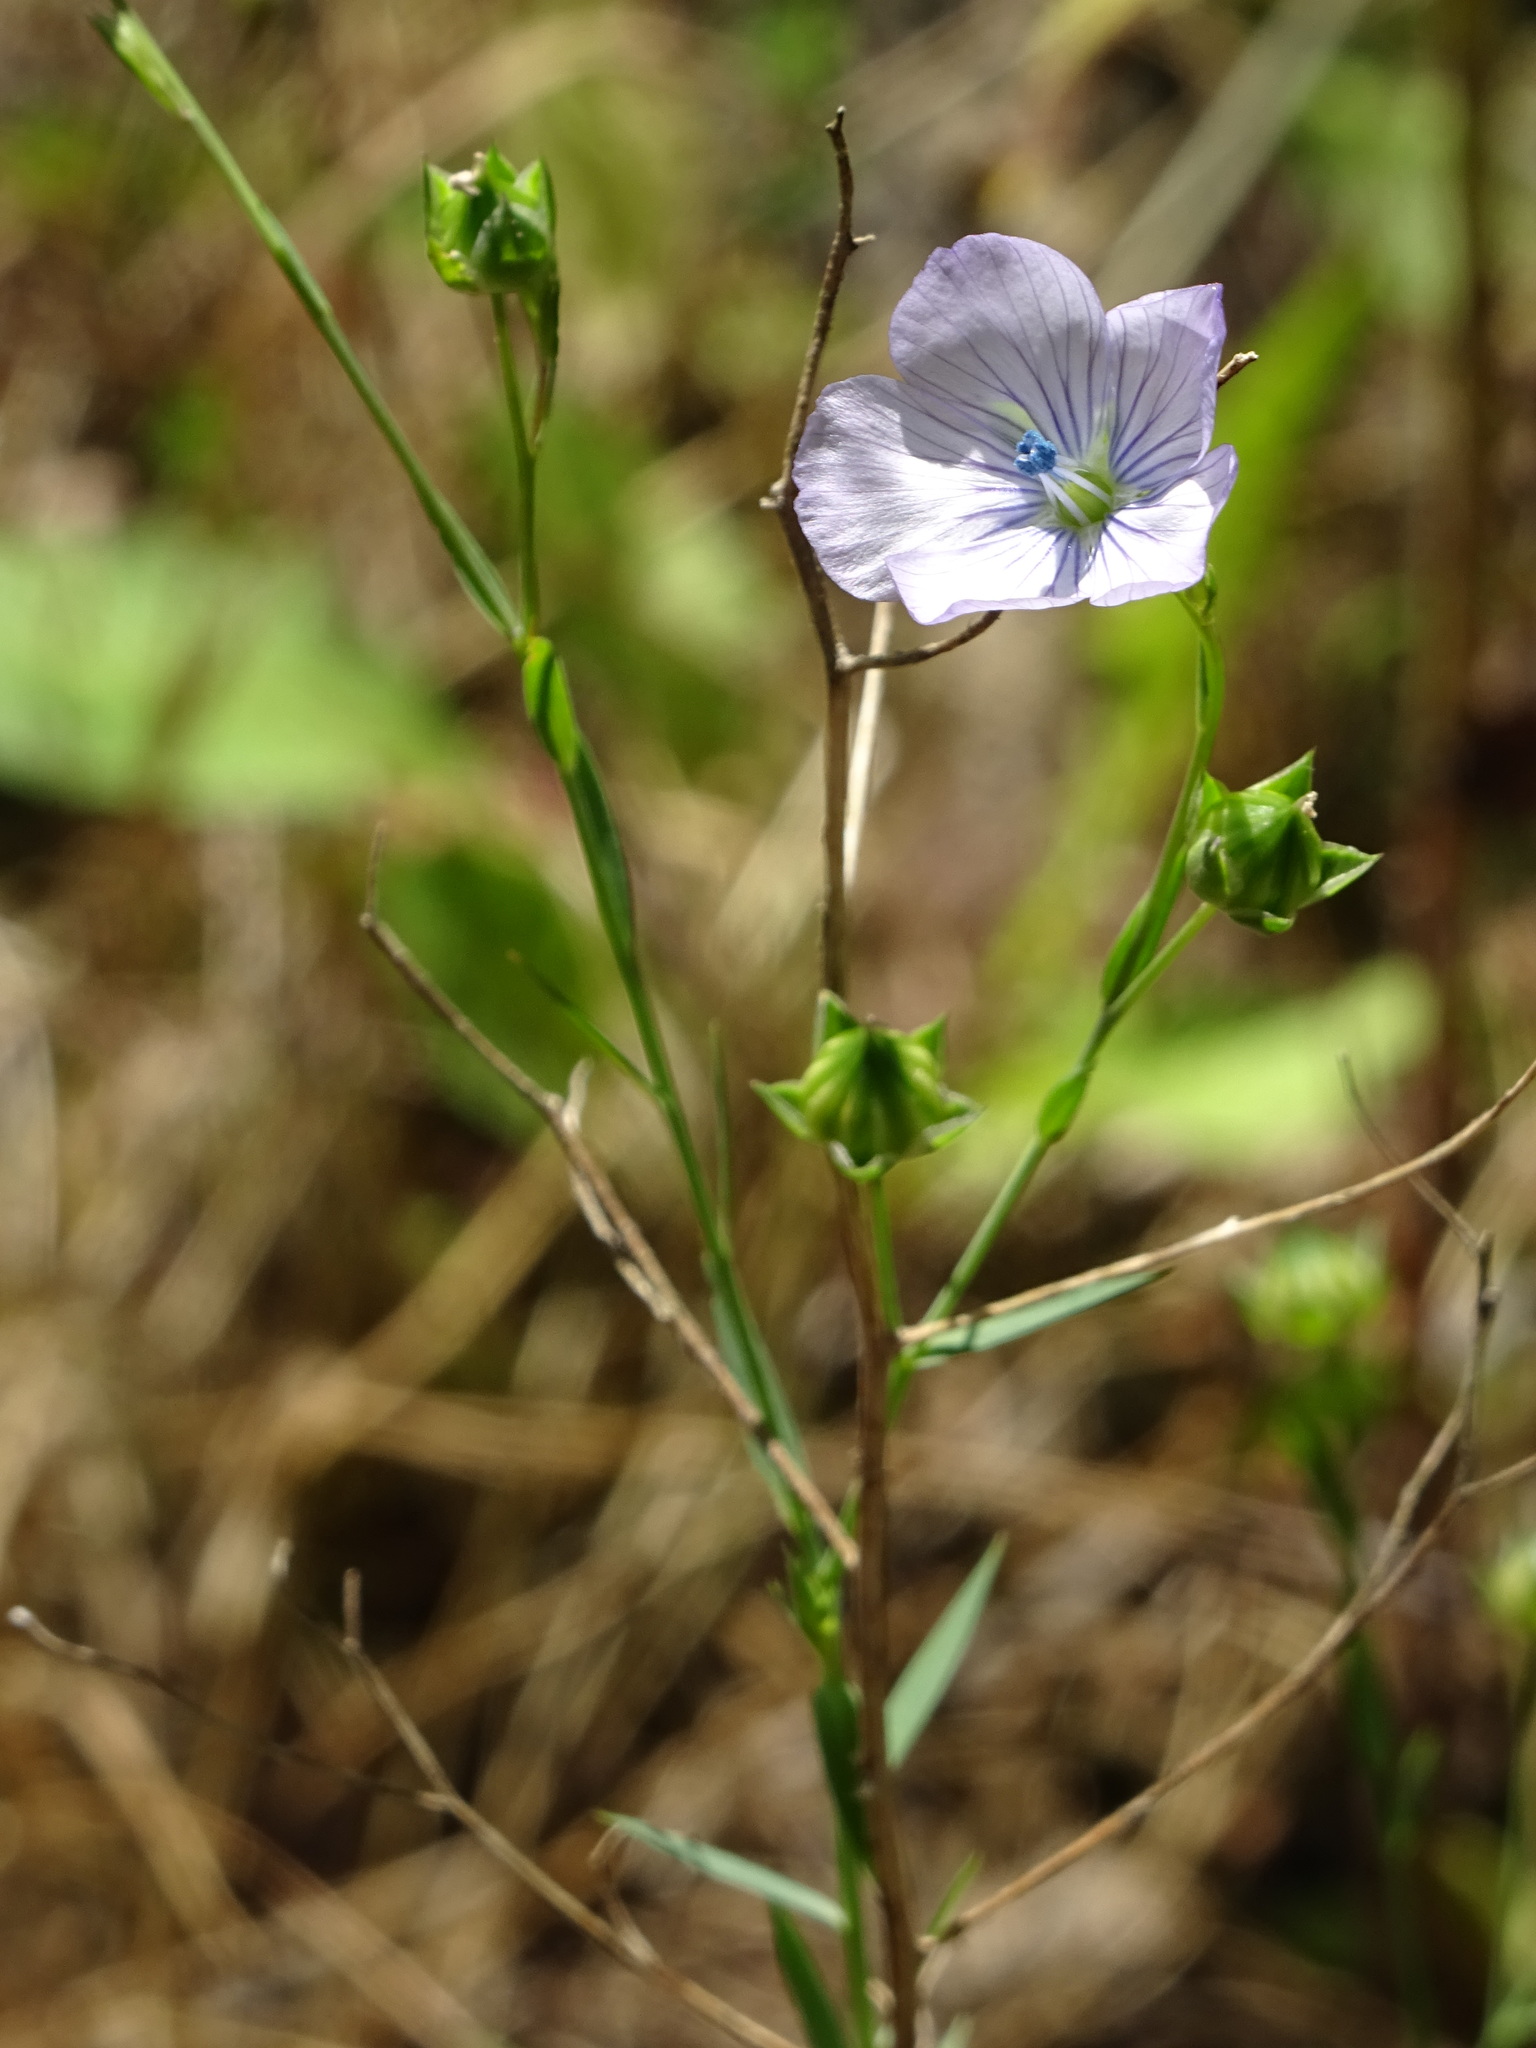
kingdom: Plantae
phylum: Tracheophyta
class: Magnoliopsida
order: Malpighiales
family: Linaceae
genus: Linum
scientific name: Linum usitatissimum
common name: Flax
